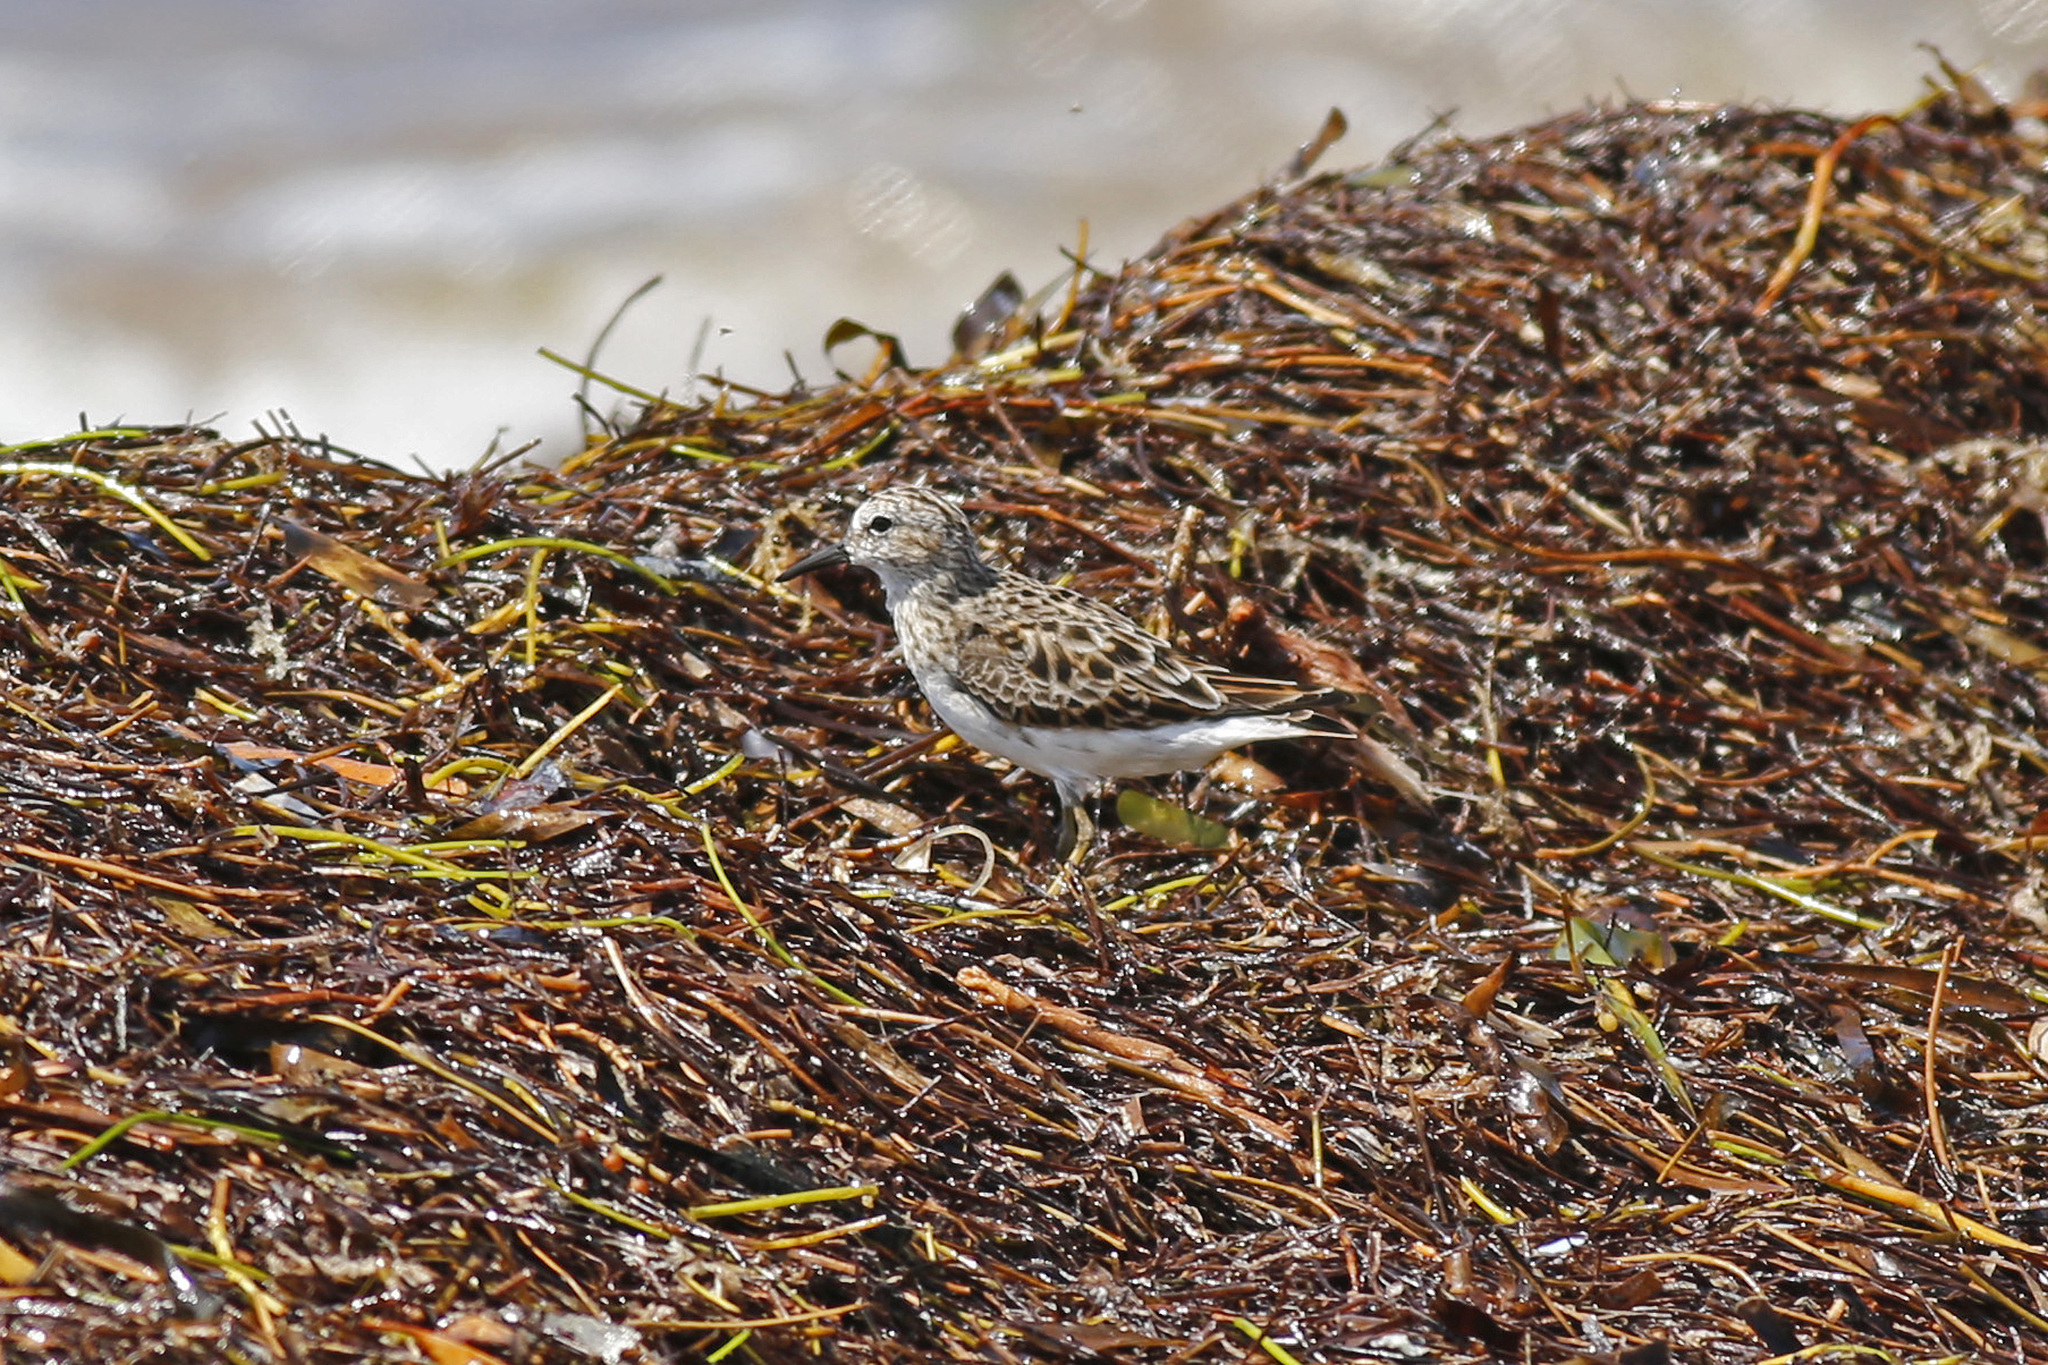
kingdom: Animalia
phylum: Chordata
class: Aves
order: Charadriiformes
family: Scolopacidae
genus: Calidris
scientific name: Calidris minutilla
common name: Least sandpiper
